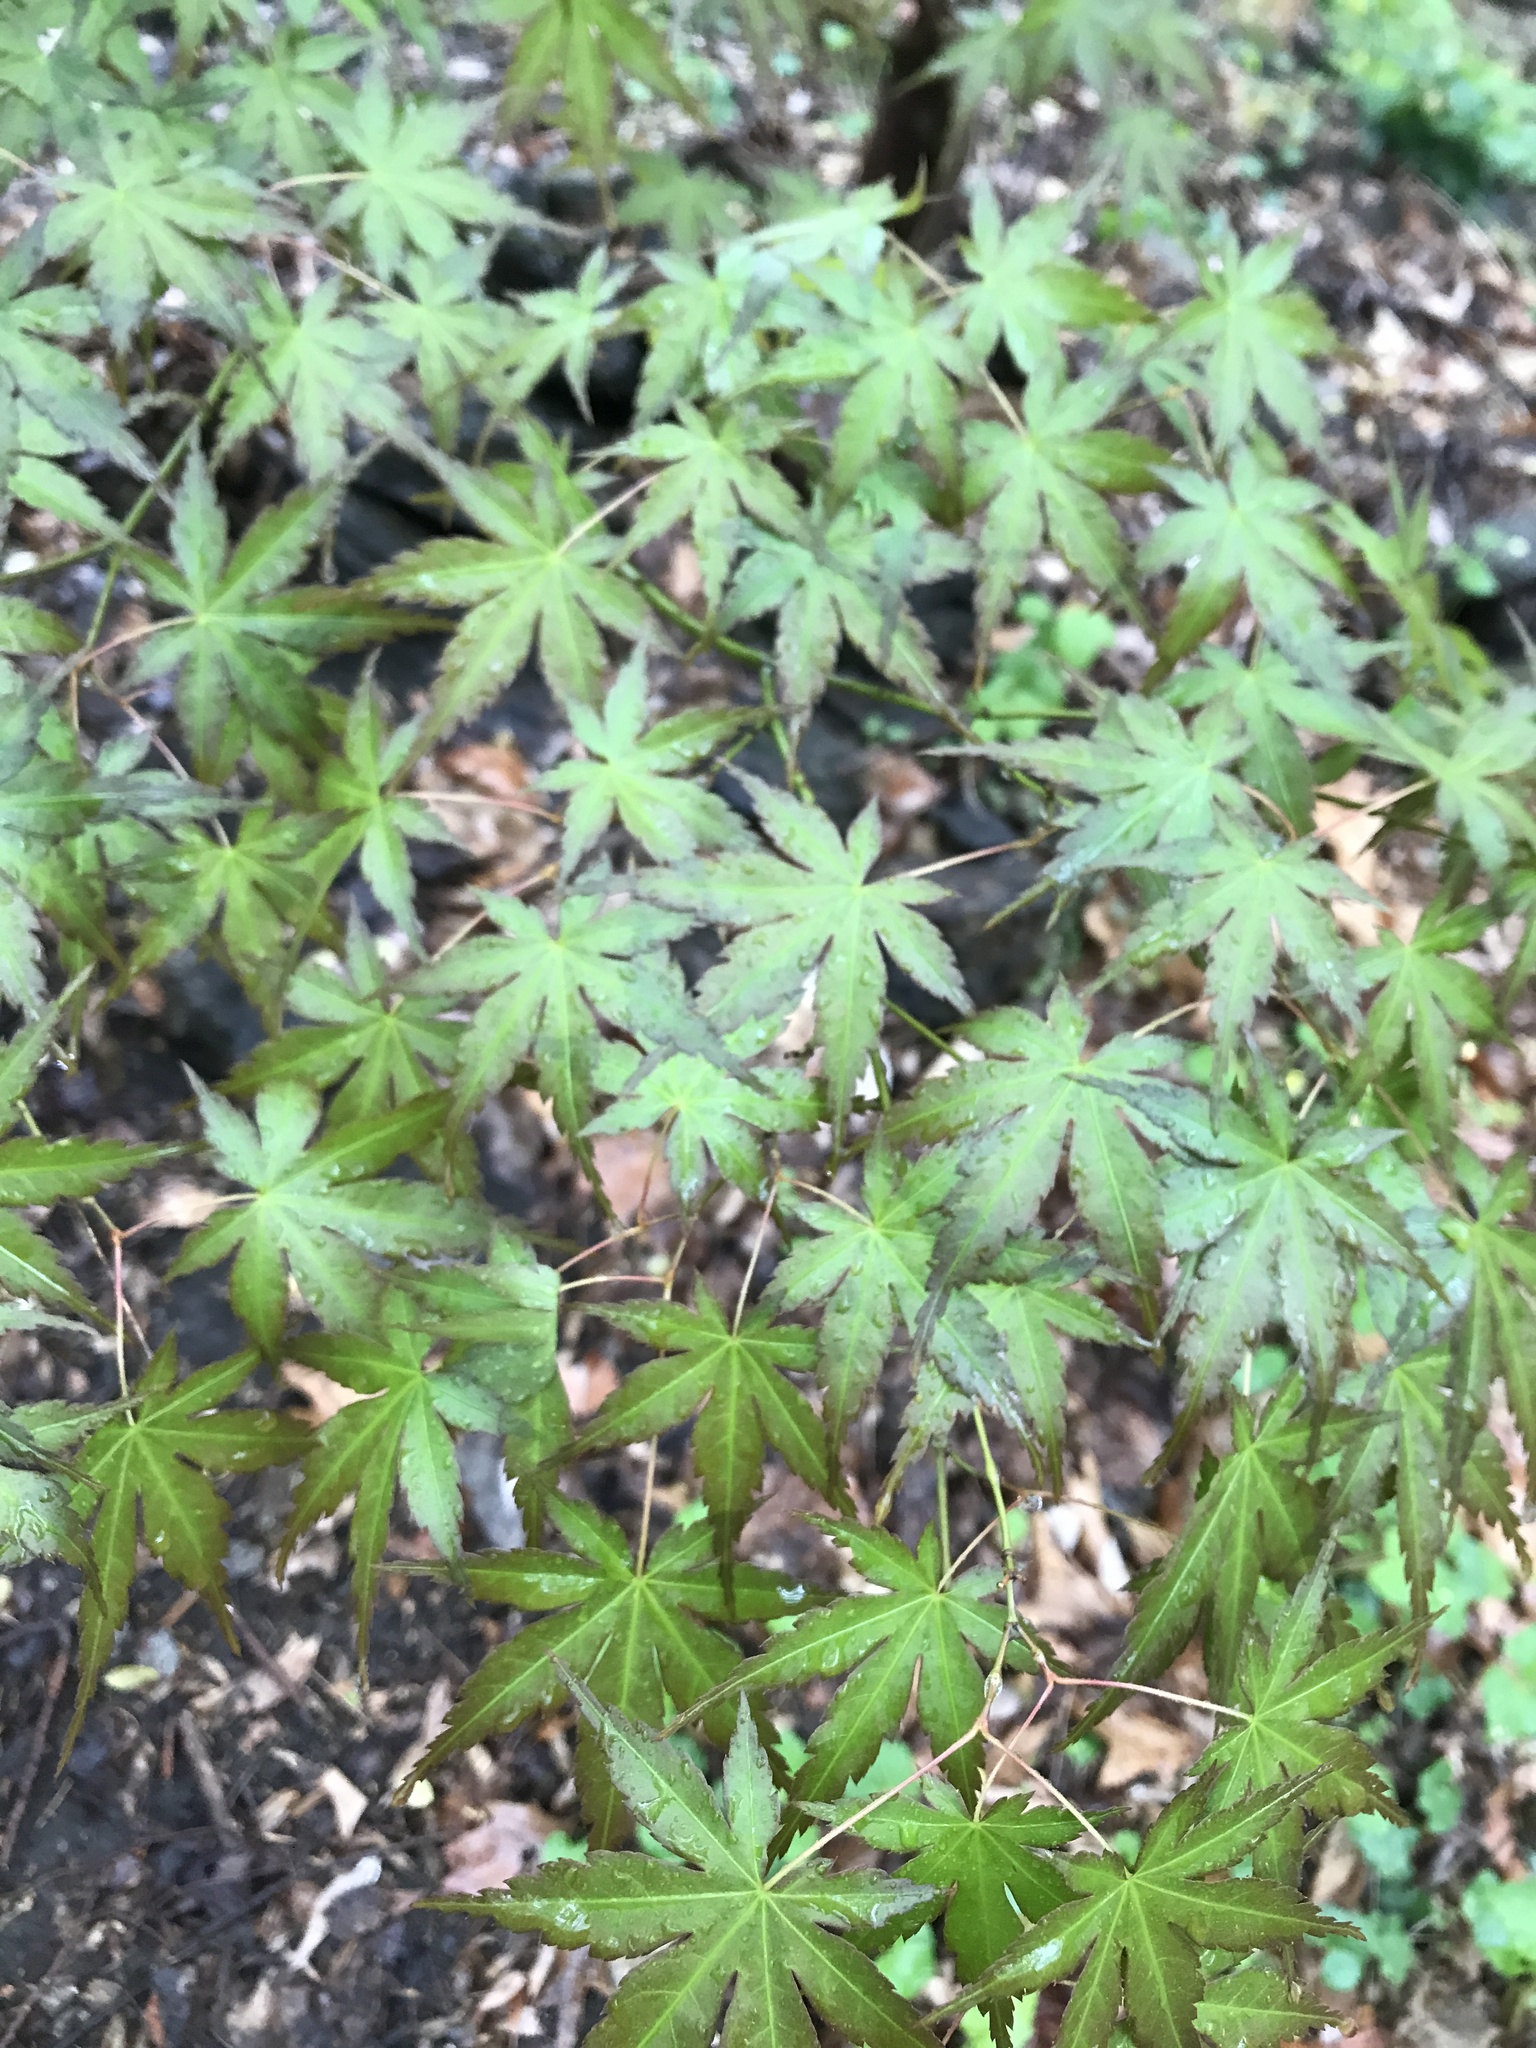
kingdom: Plantae
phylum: Tracheophyta
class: Magnoliopsida
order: Sapindales
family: Sapindaceae
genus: Acer
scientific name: Acer palmatum
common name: Japanese maple
